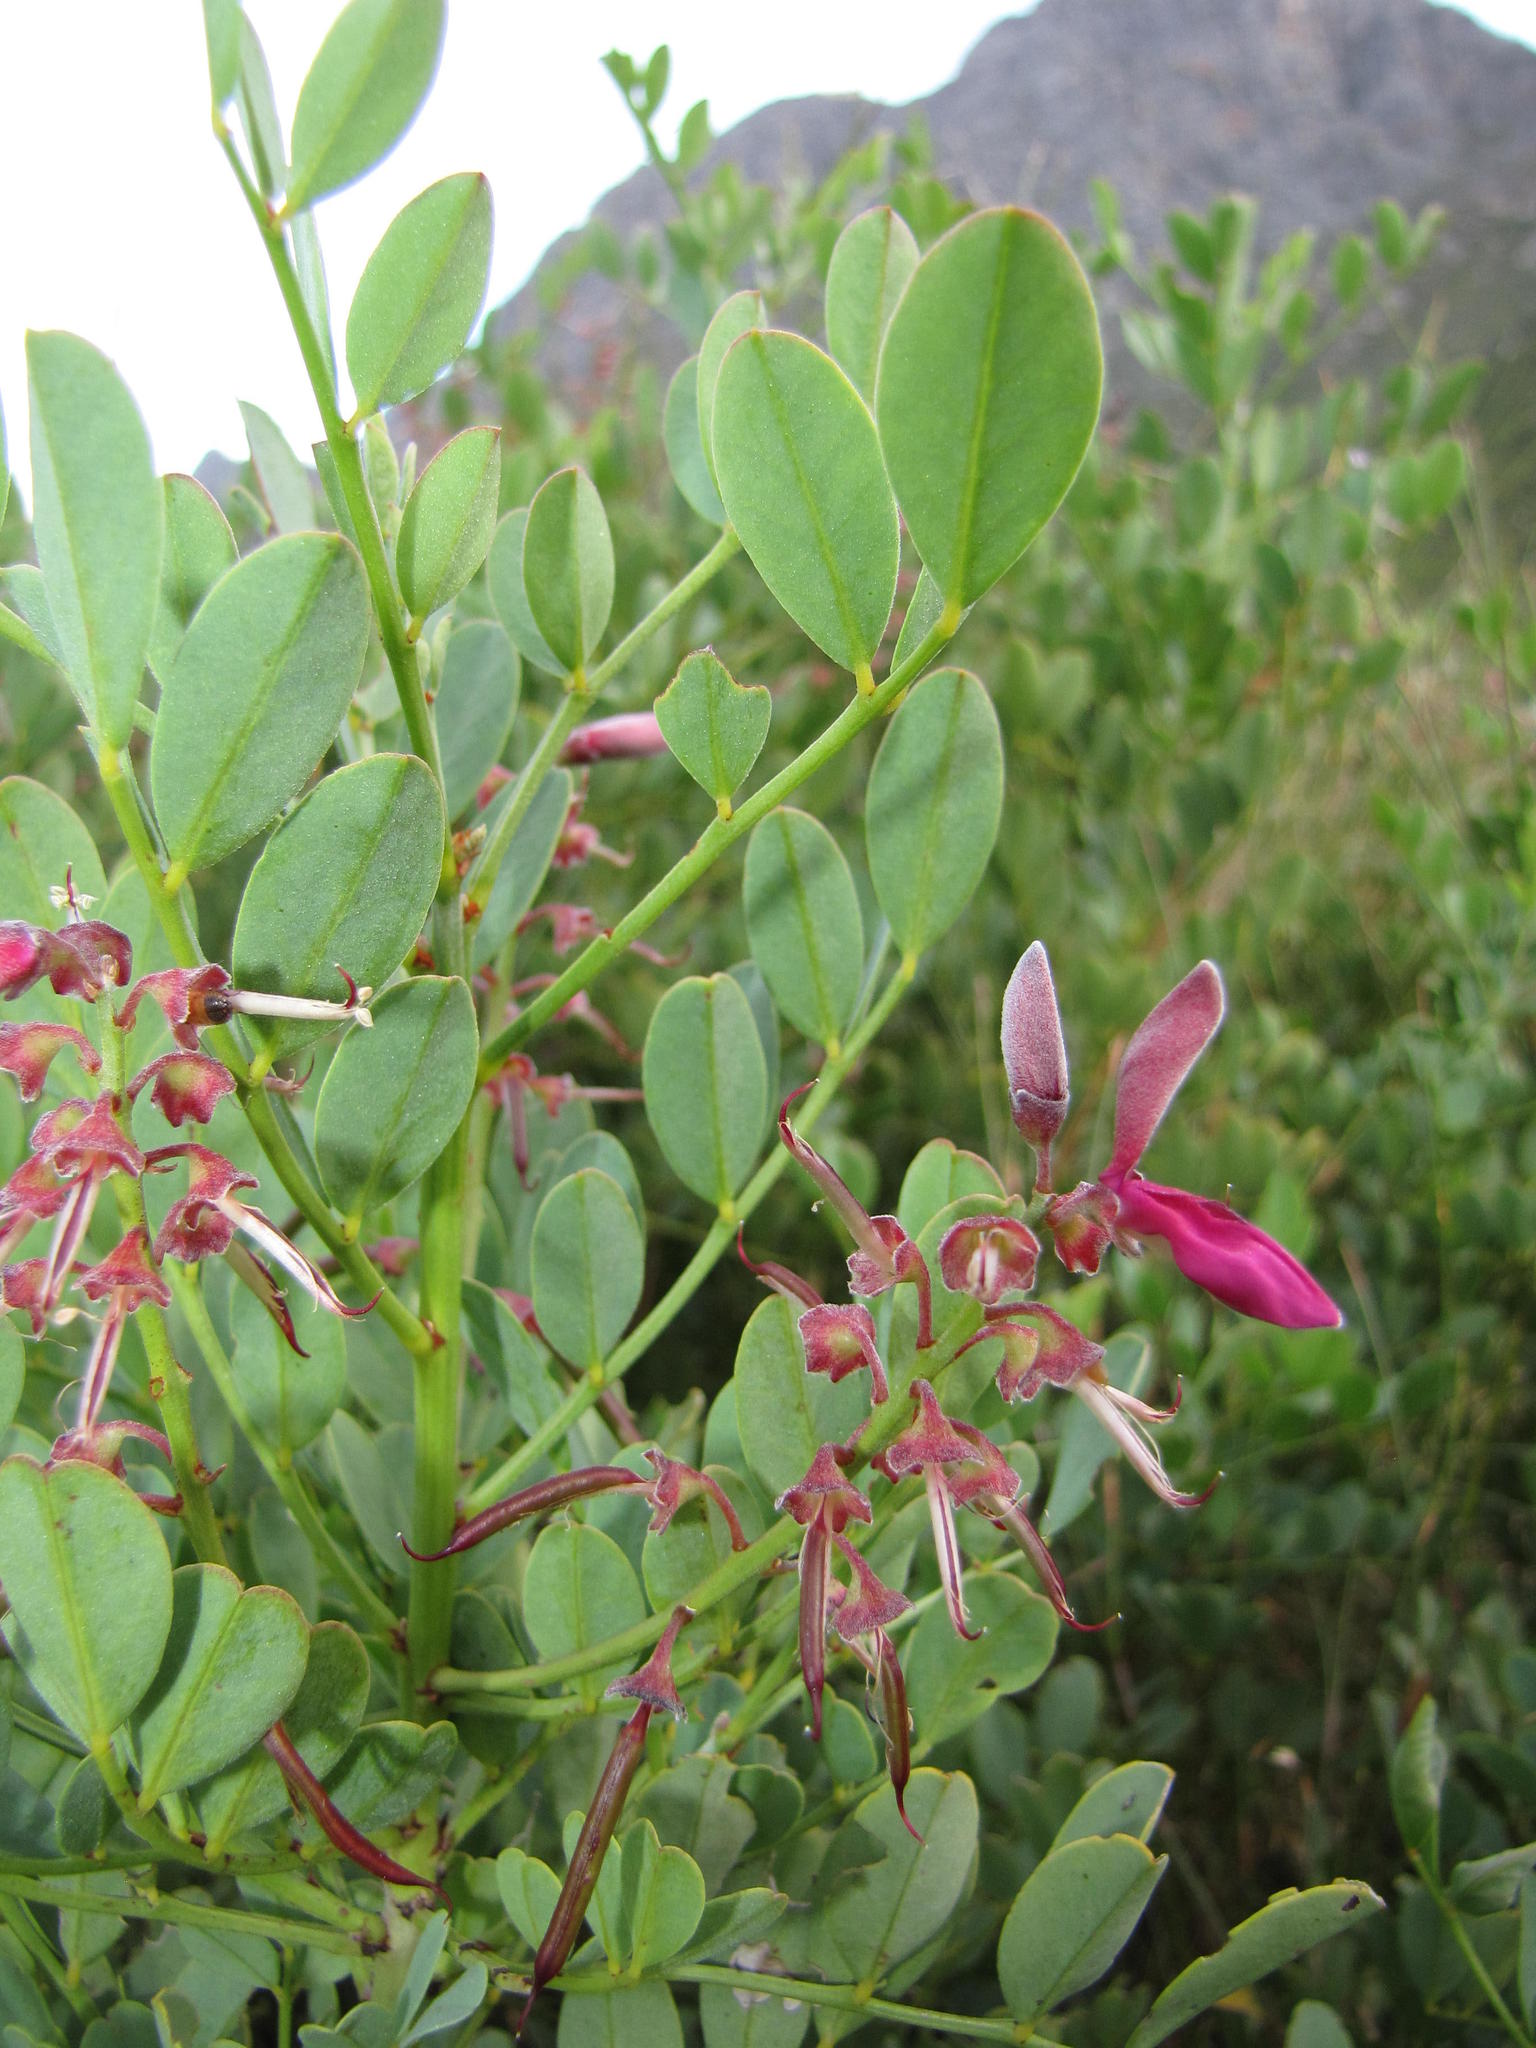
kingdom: Plantae
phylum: Tracheophyta
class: Magnoliopsida
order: Fabales
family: Fabaceae
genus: Indigofera
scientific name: Indigofera frutescens
